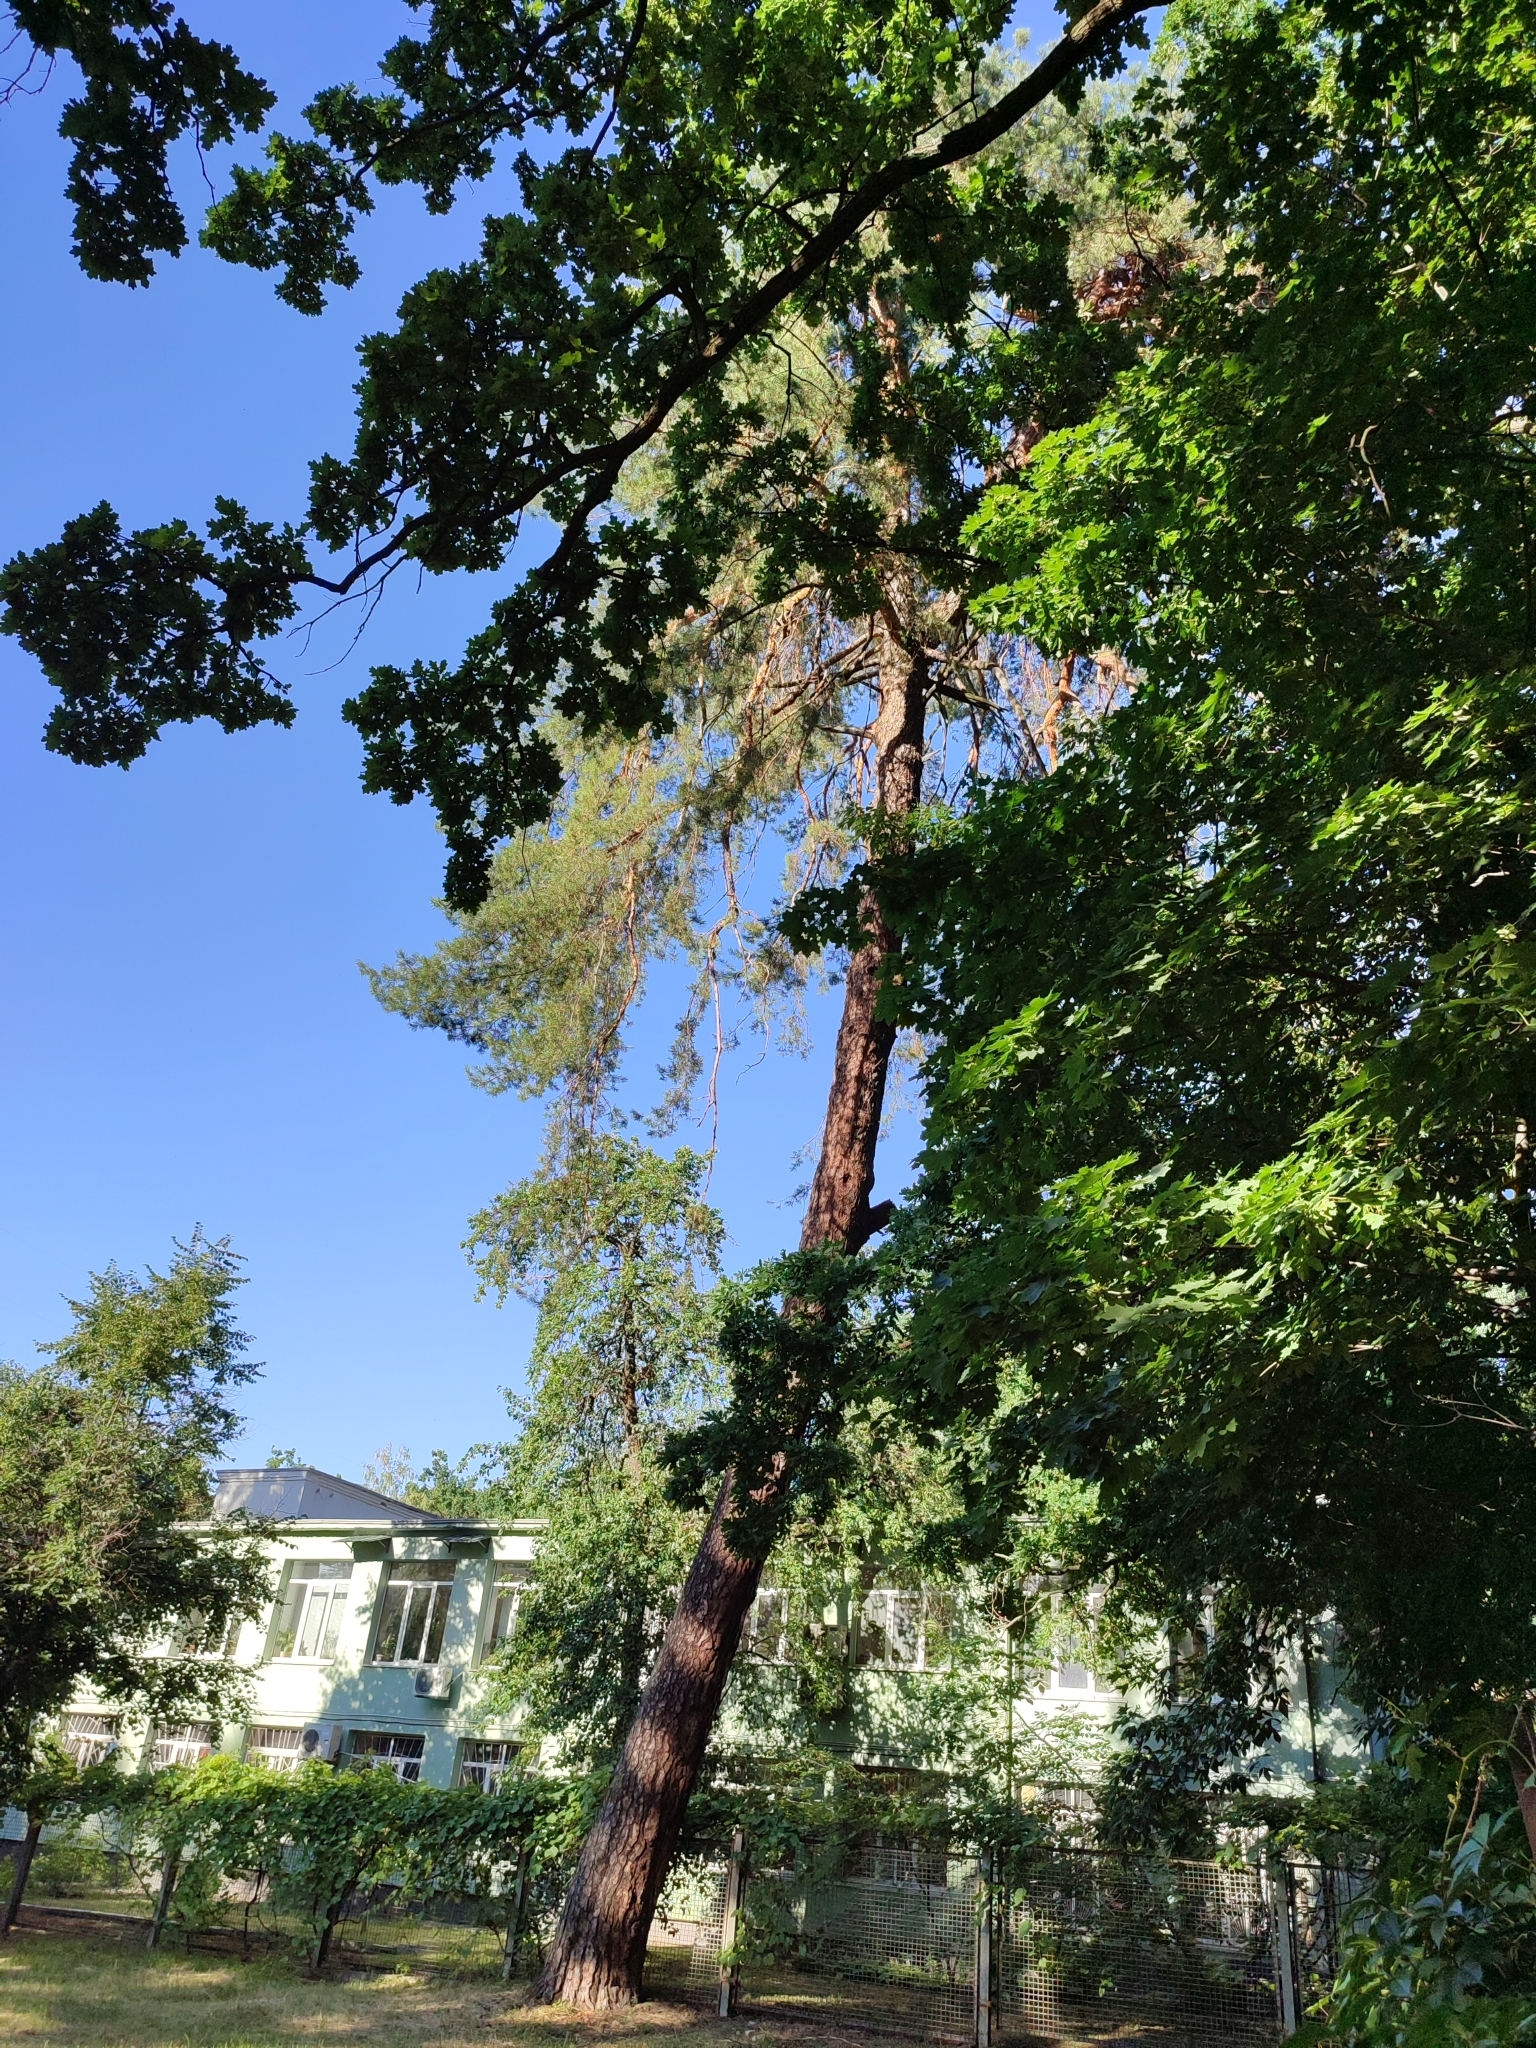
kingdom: Plantae
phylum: Tracheophyta
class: Pinopsida
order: Pinales
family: Pinaceae
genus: Pinus
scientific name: Pinus sylvestris
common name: Scots pine
